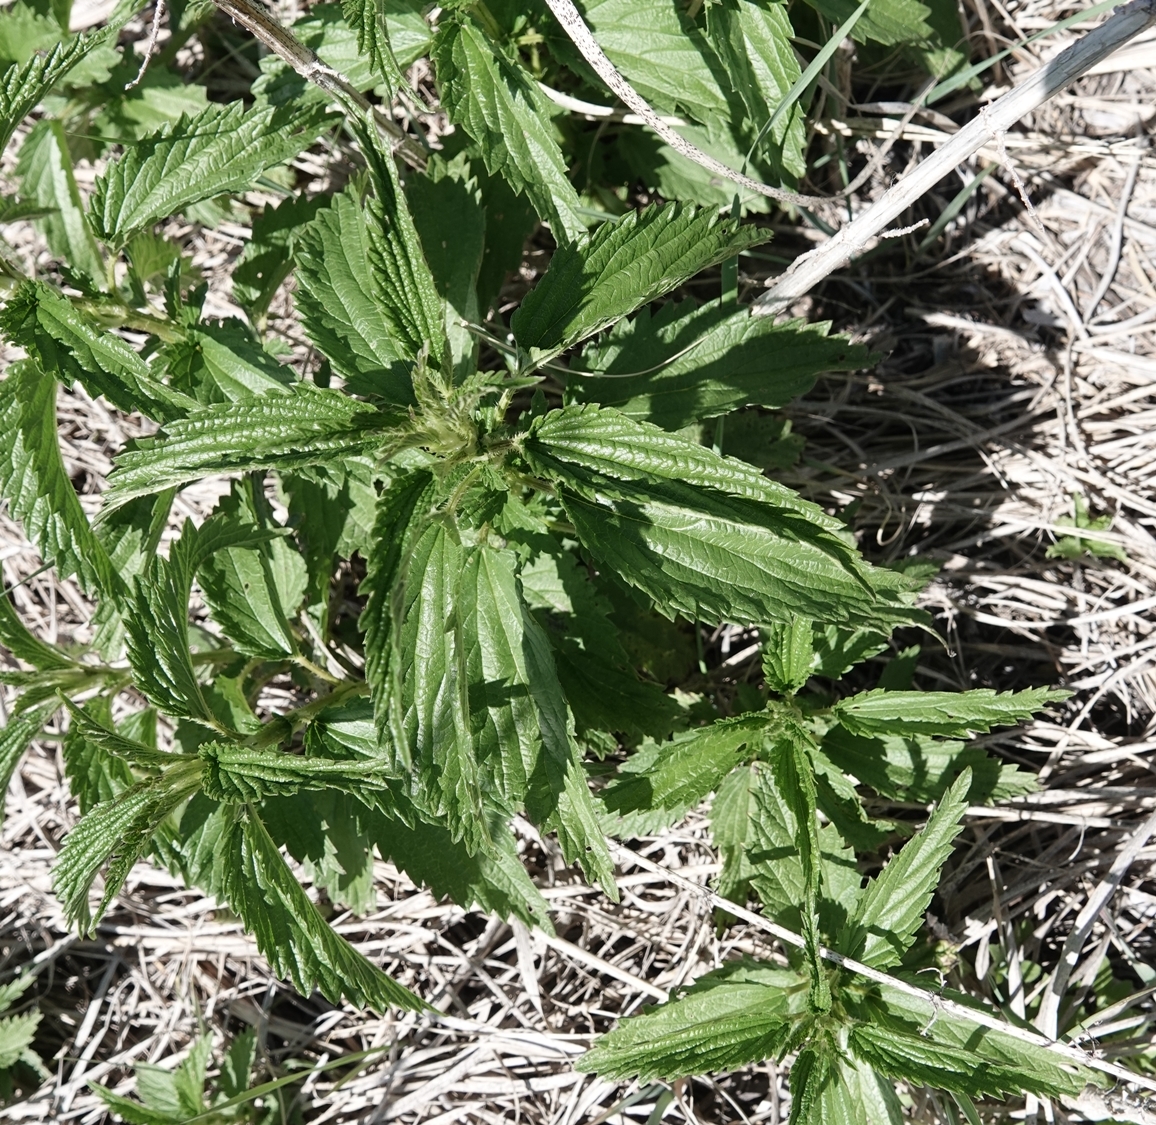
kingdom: Plantae
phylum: Tracheophyta
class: Magnoliopsida
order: Rosales
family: Urticaceae
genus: Urtica
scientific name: Urtica dioica
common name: Common nettle
